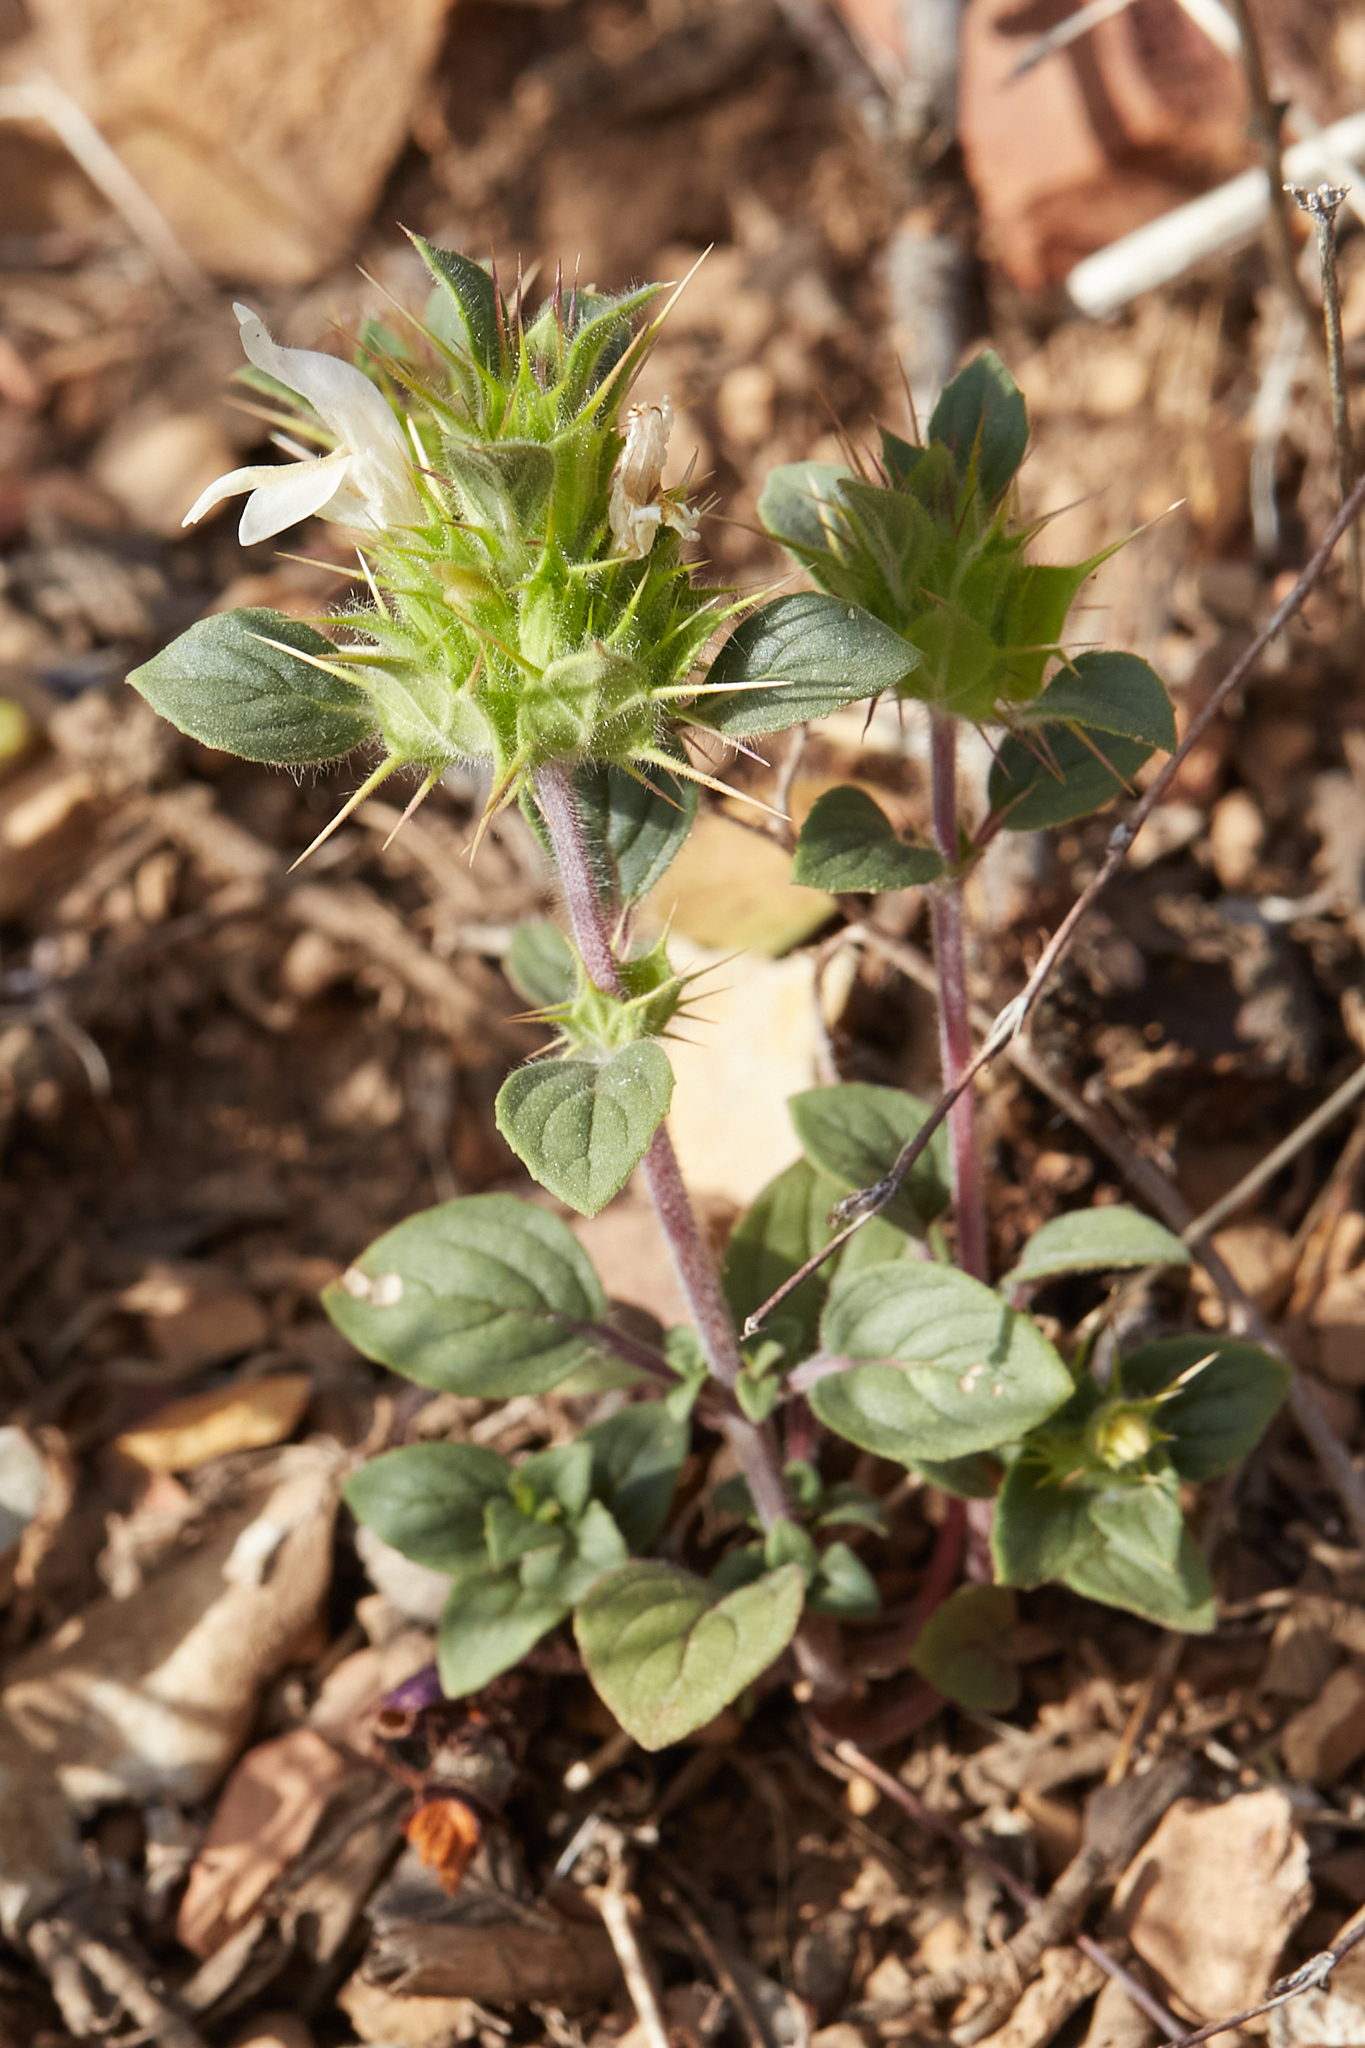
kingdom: Plantae
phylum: Tracheophyta
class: Magnoliopsida
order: Lamiales
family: Lamiaceae
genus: Acanthomintha
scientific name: Acanthomintha lanceolata
